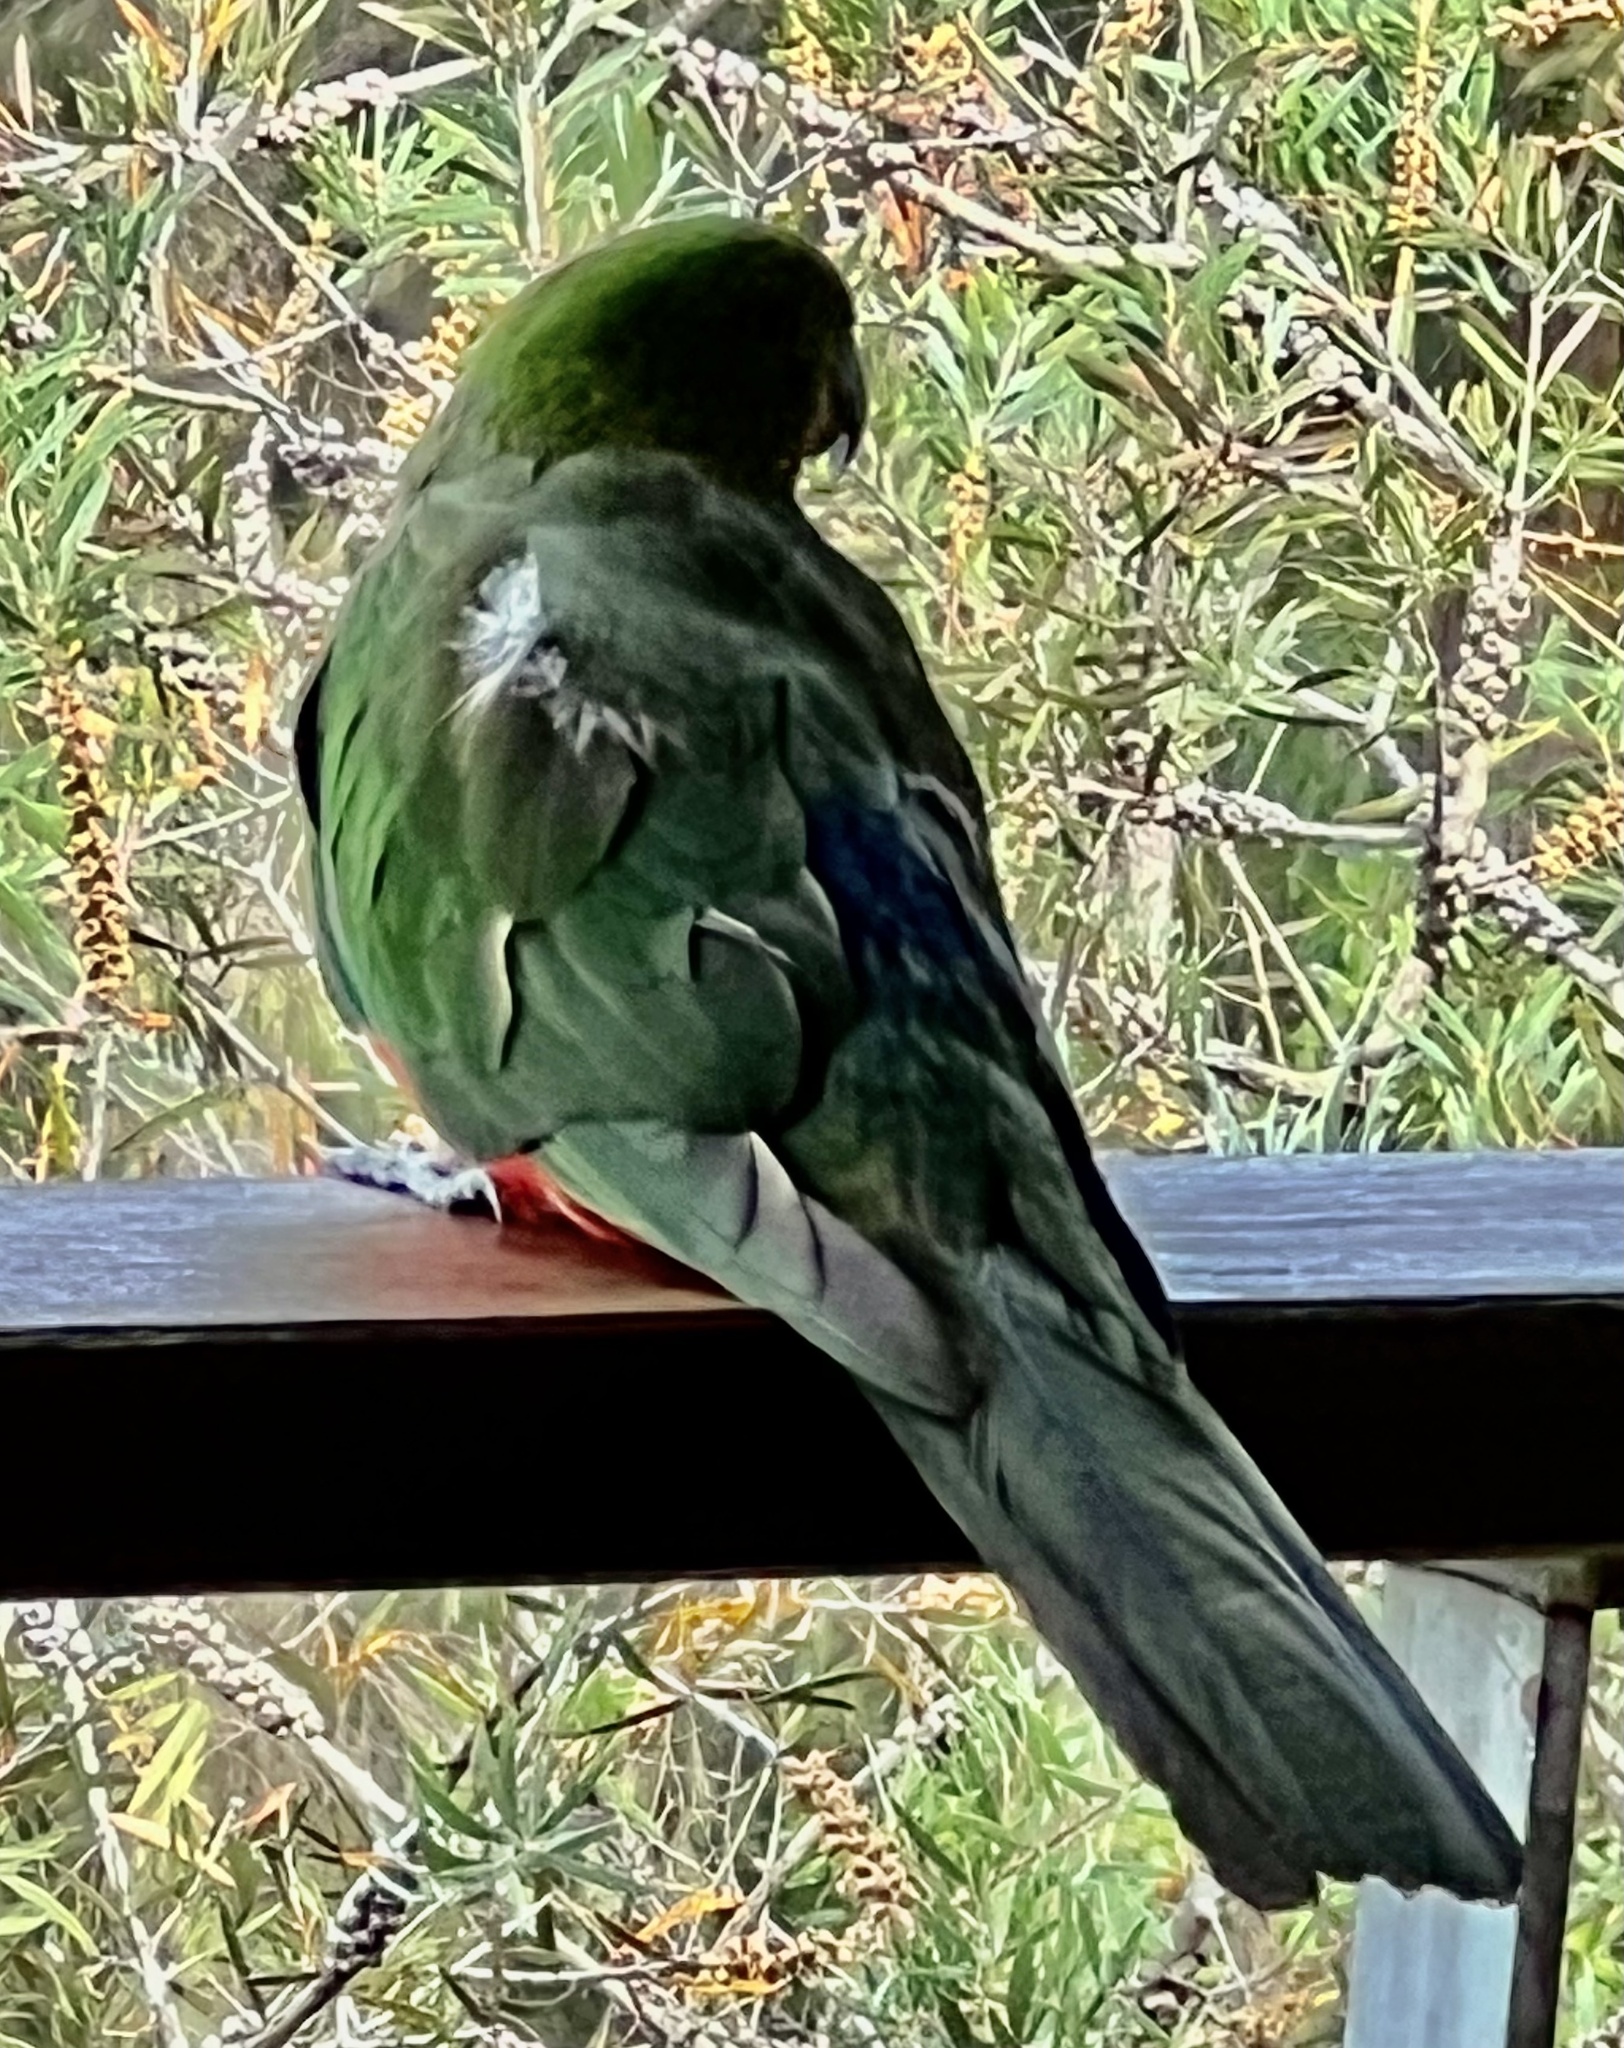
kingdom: Animalia
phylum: Chordata
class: Aves
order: Psittaciformes
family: Psittacidae
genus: Alisterus
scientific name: Alisterus scapularis
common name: Australian king parrot
